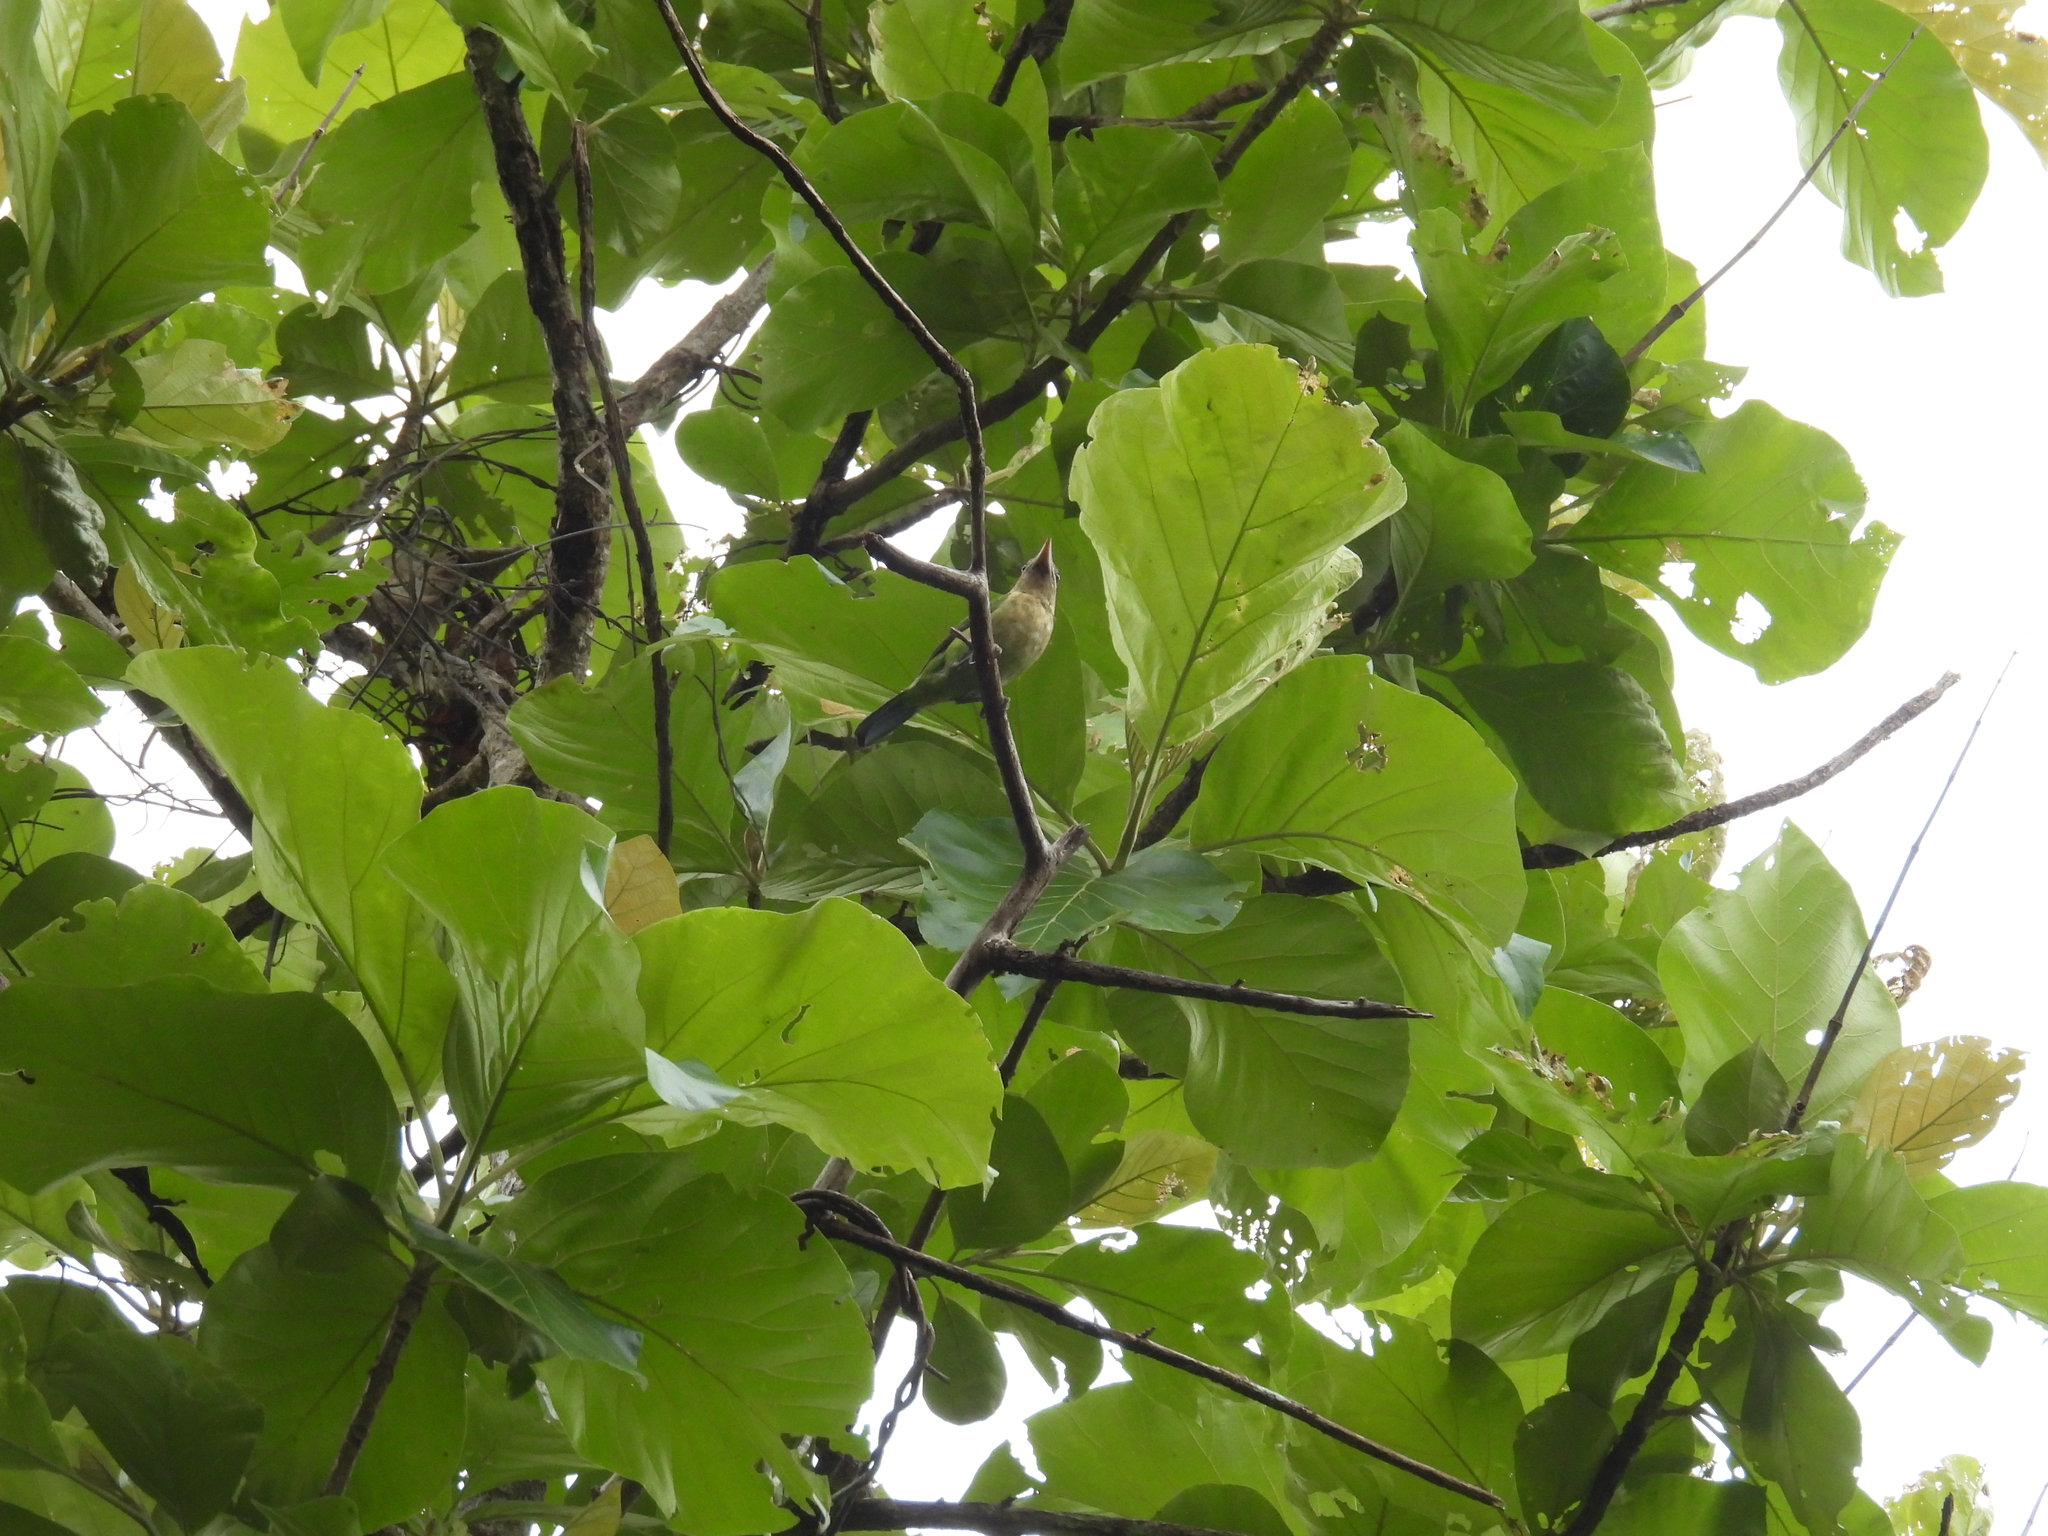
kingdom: Animalia
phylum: Chordata
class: Aves
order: Piciformes
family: Megalaimidae
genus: Psilopogon
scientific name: Psilopogon viridis
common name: White-cheeked barbet
